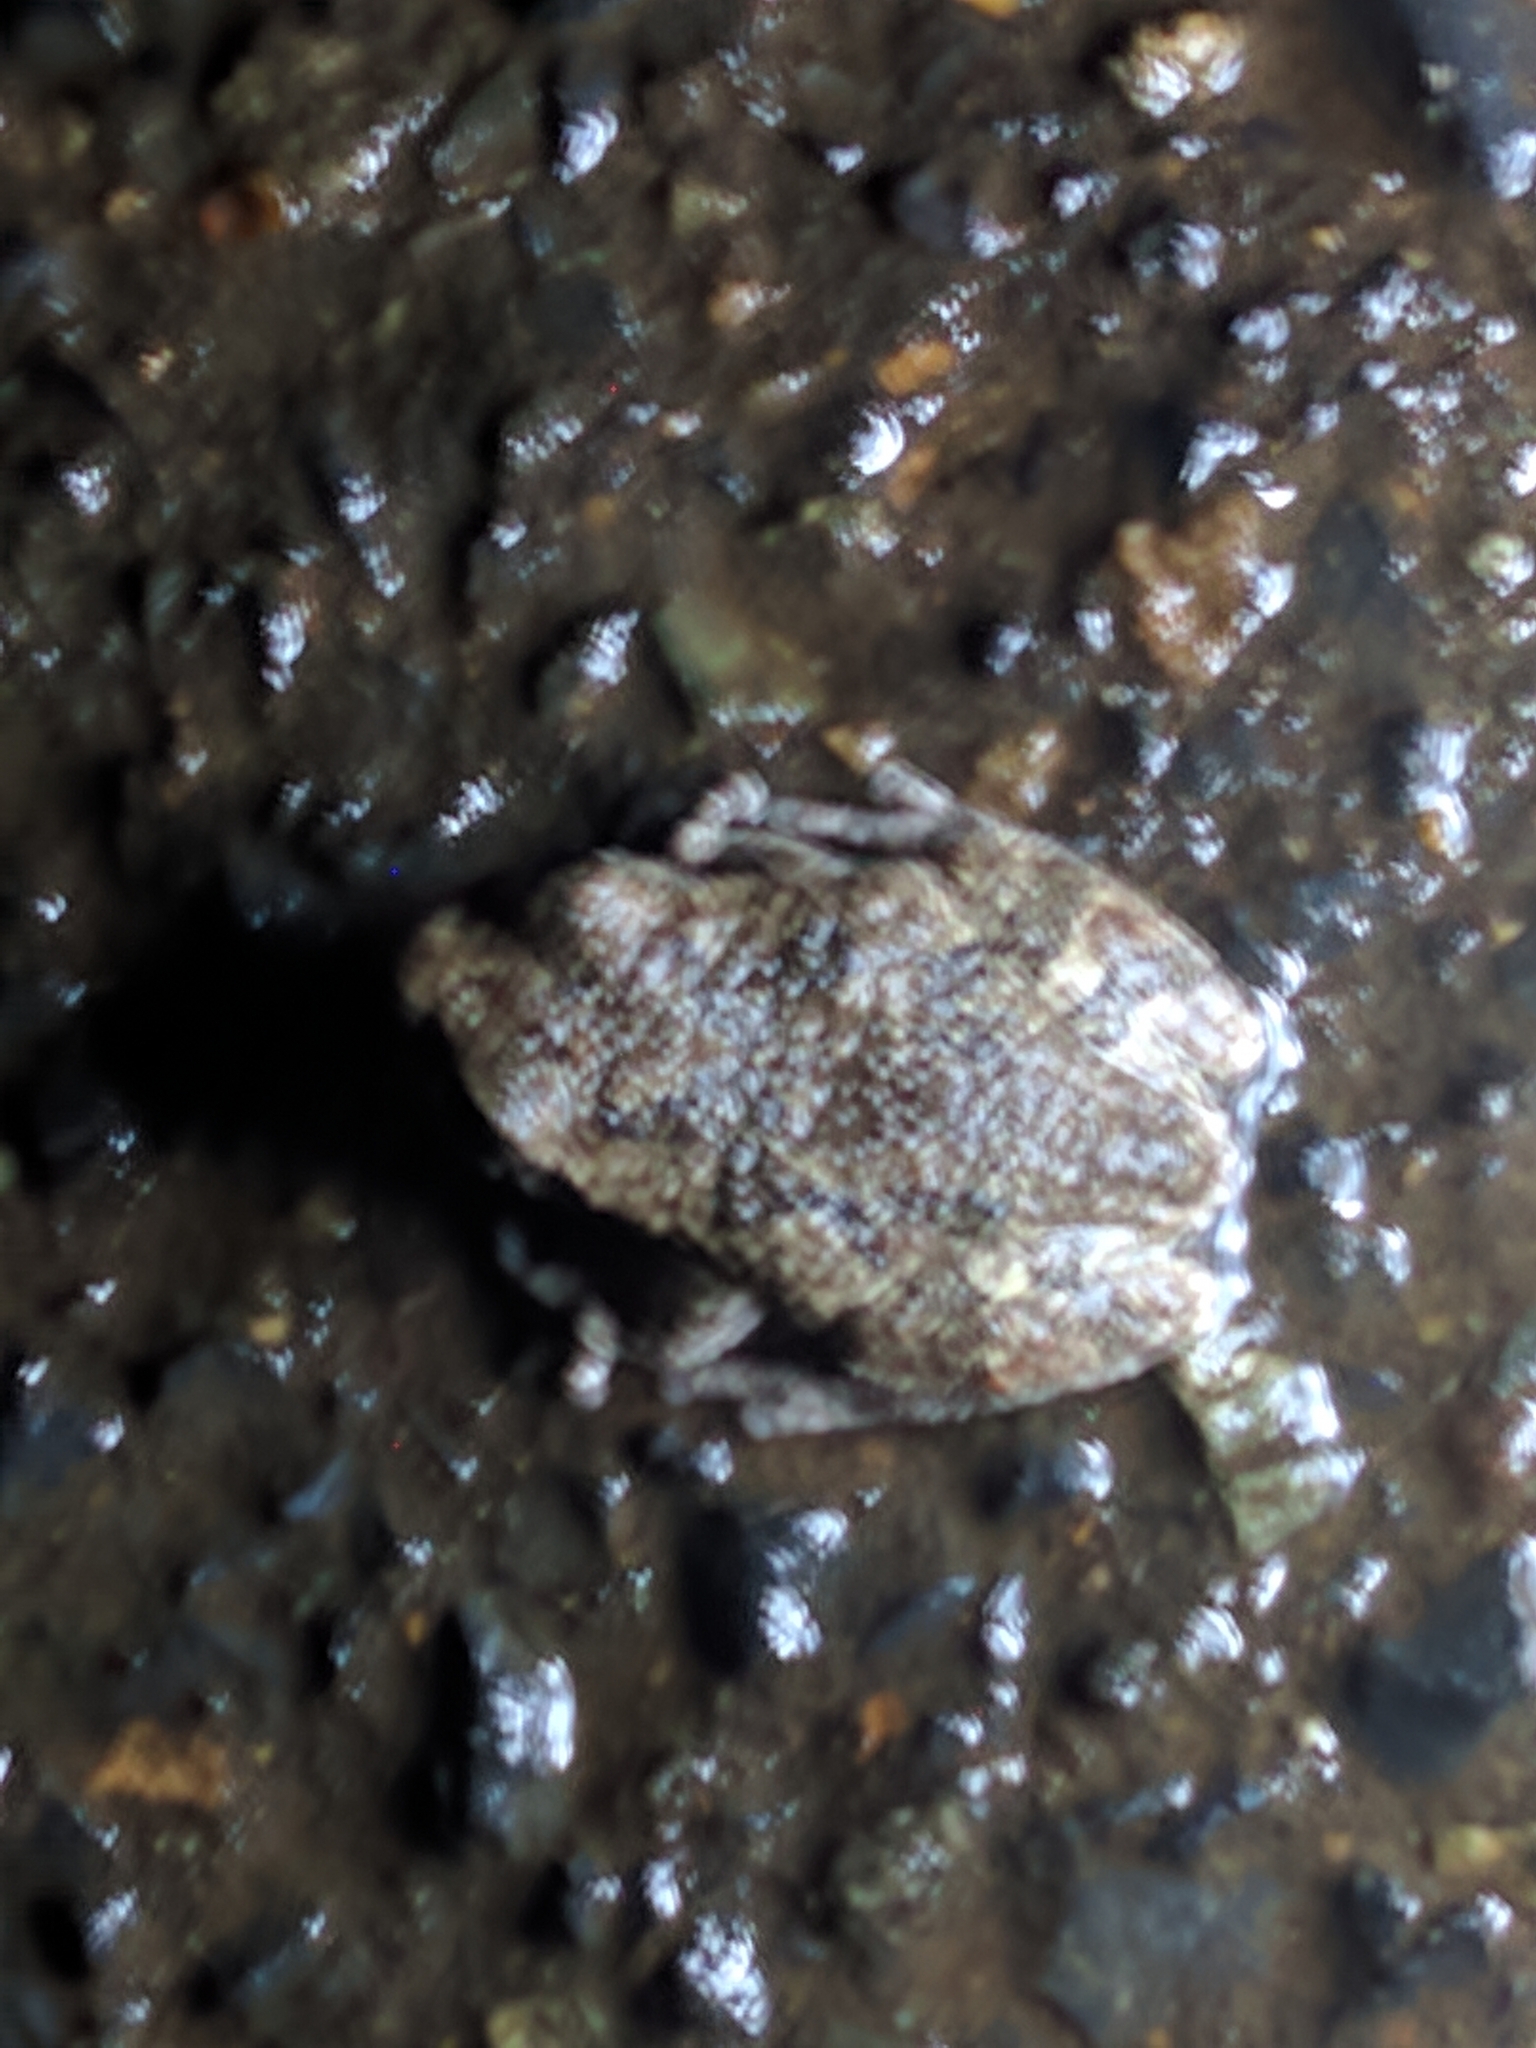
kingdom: Animalia
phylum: Chordata
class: Amphibia
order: Anura
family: Hylidae
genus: Dryophytes
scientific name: Dryophytes versicolor
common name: Gray treefrog
